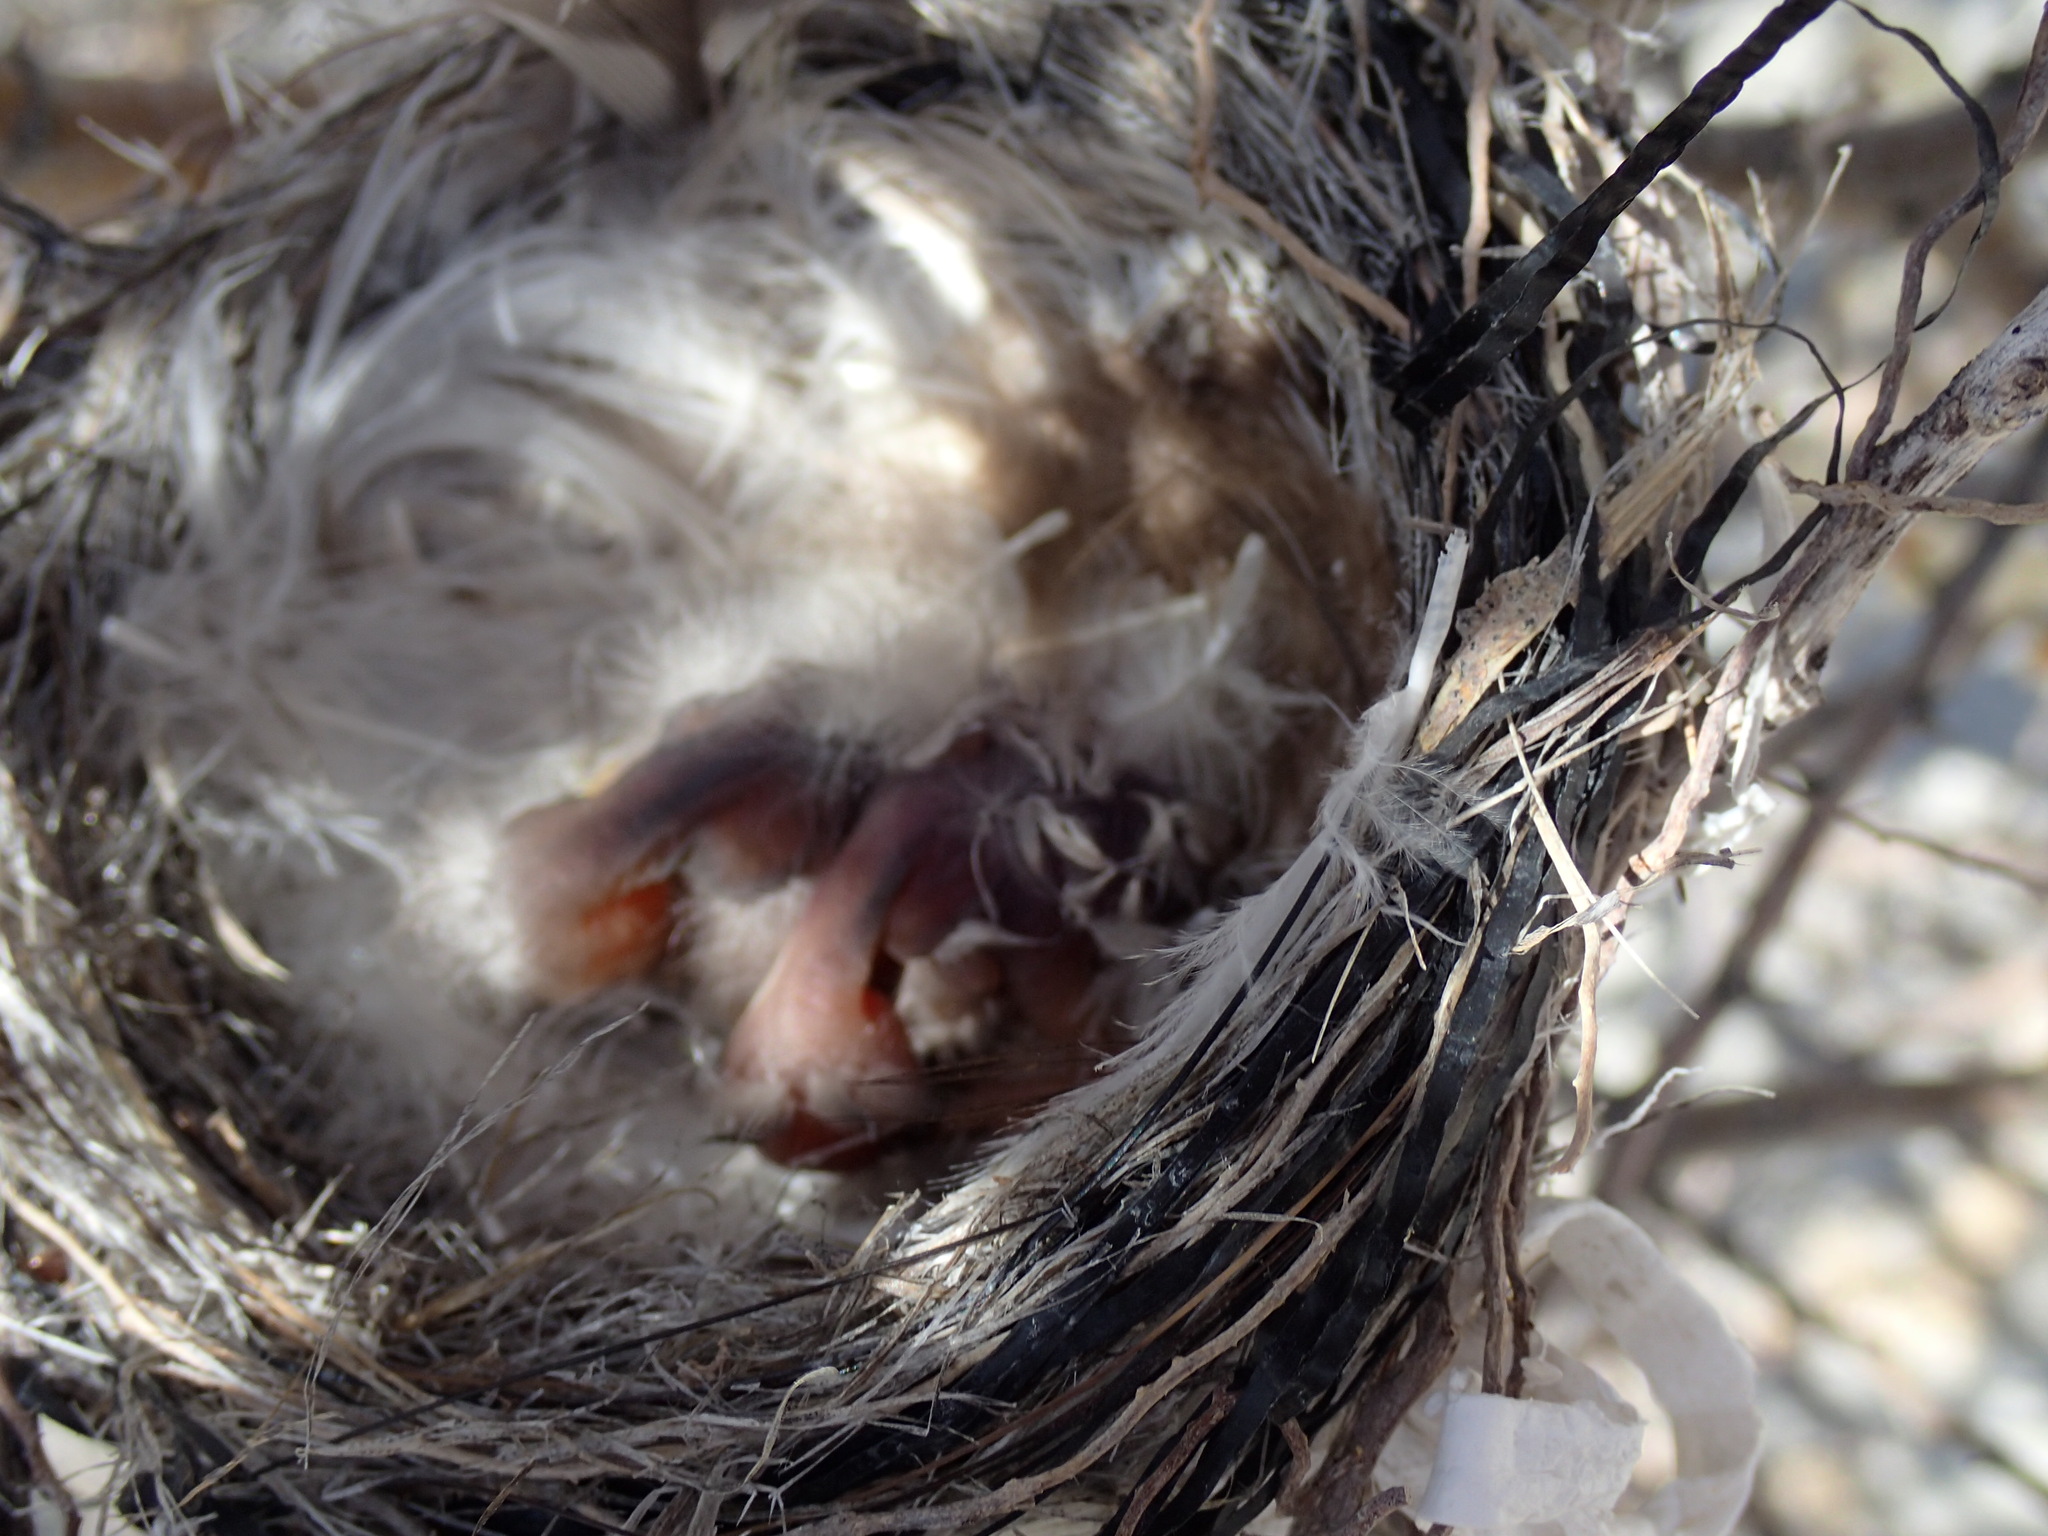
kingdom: Animalia
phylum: Chordata
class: Aves
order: Passeriformes
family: Muscicapidae
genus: Bradornis
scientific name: Bradornis mariquensis
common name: Marico flycatcher
